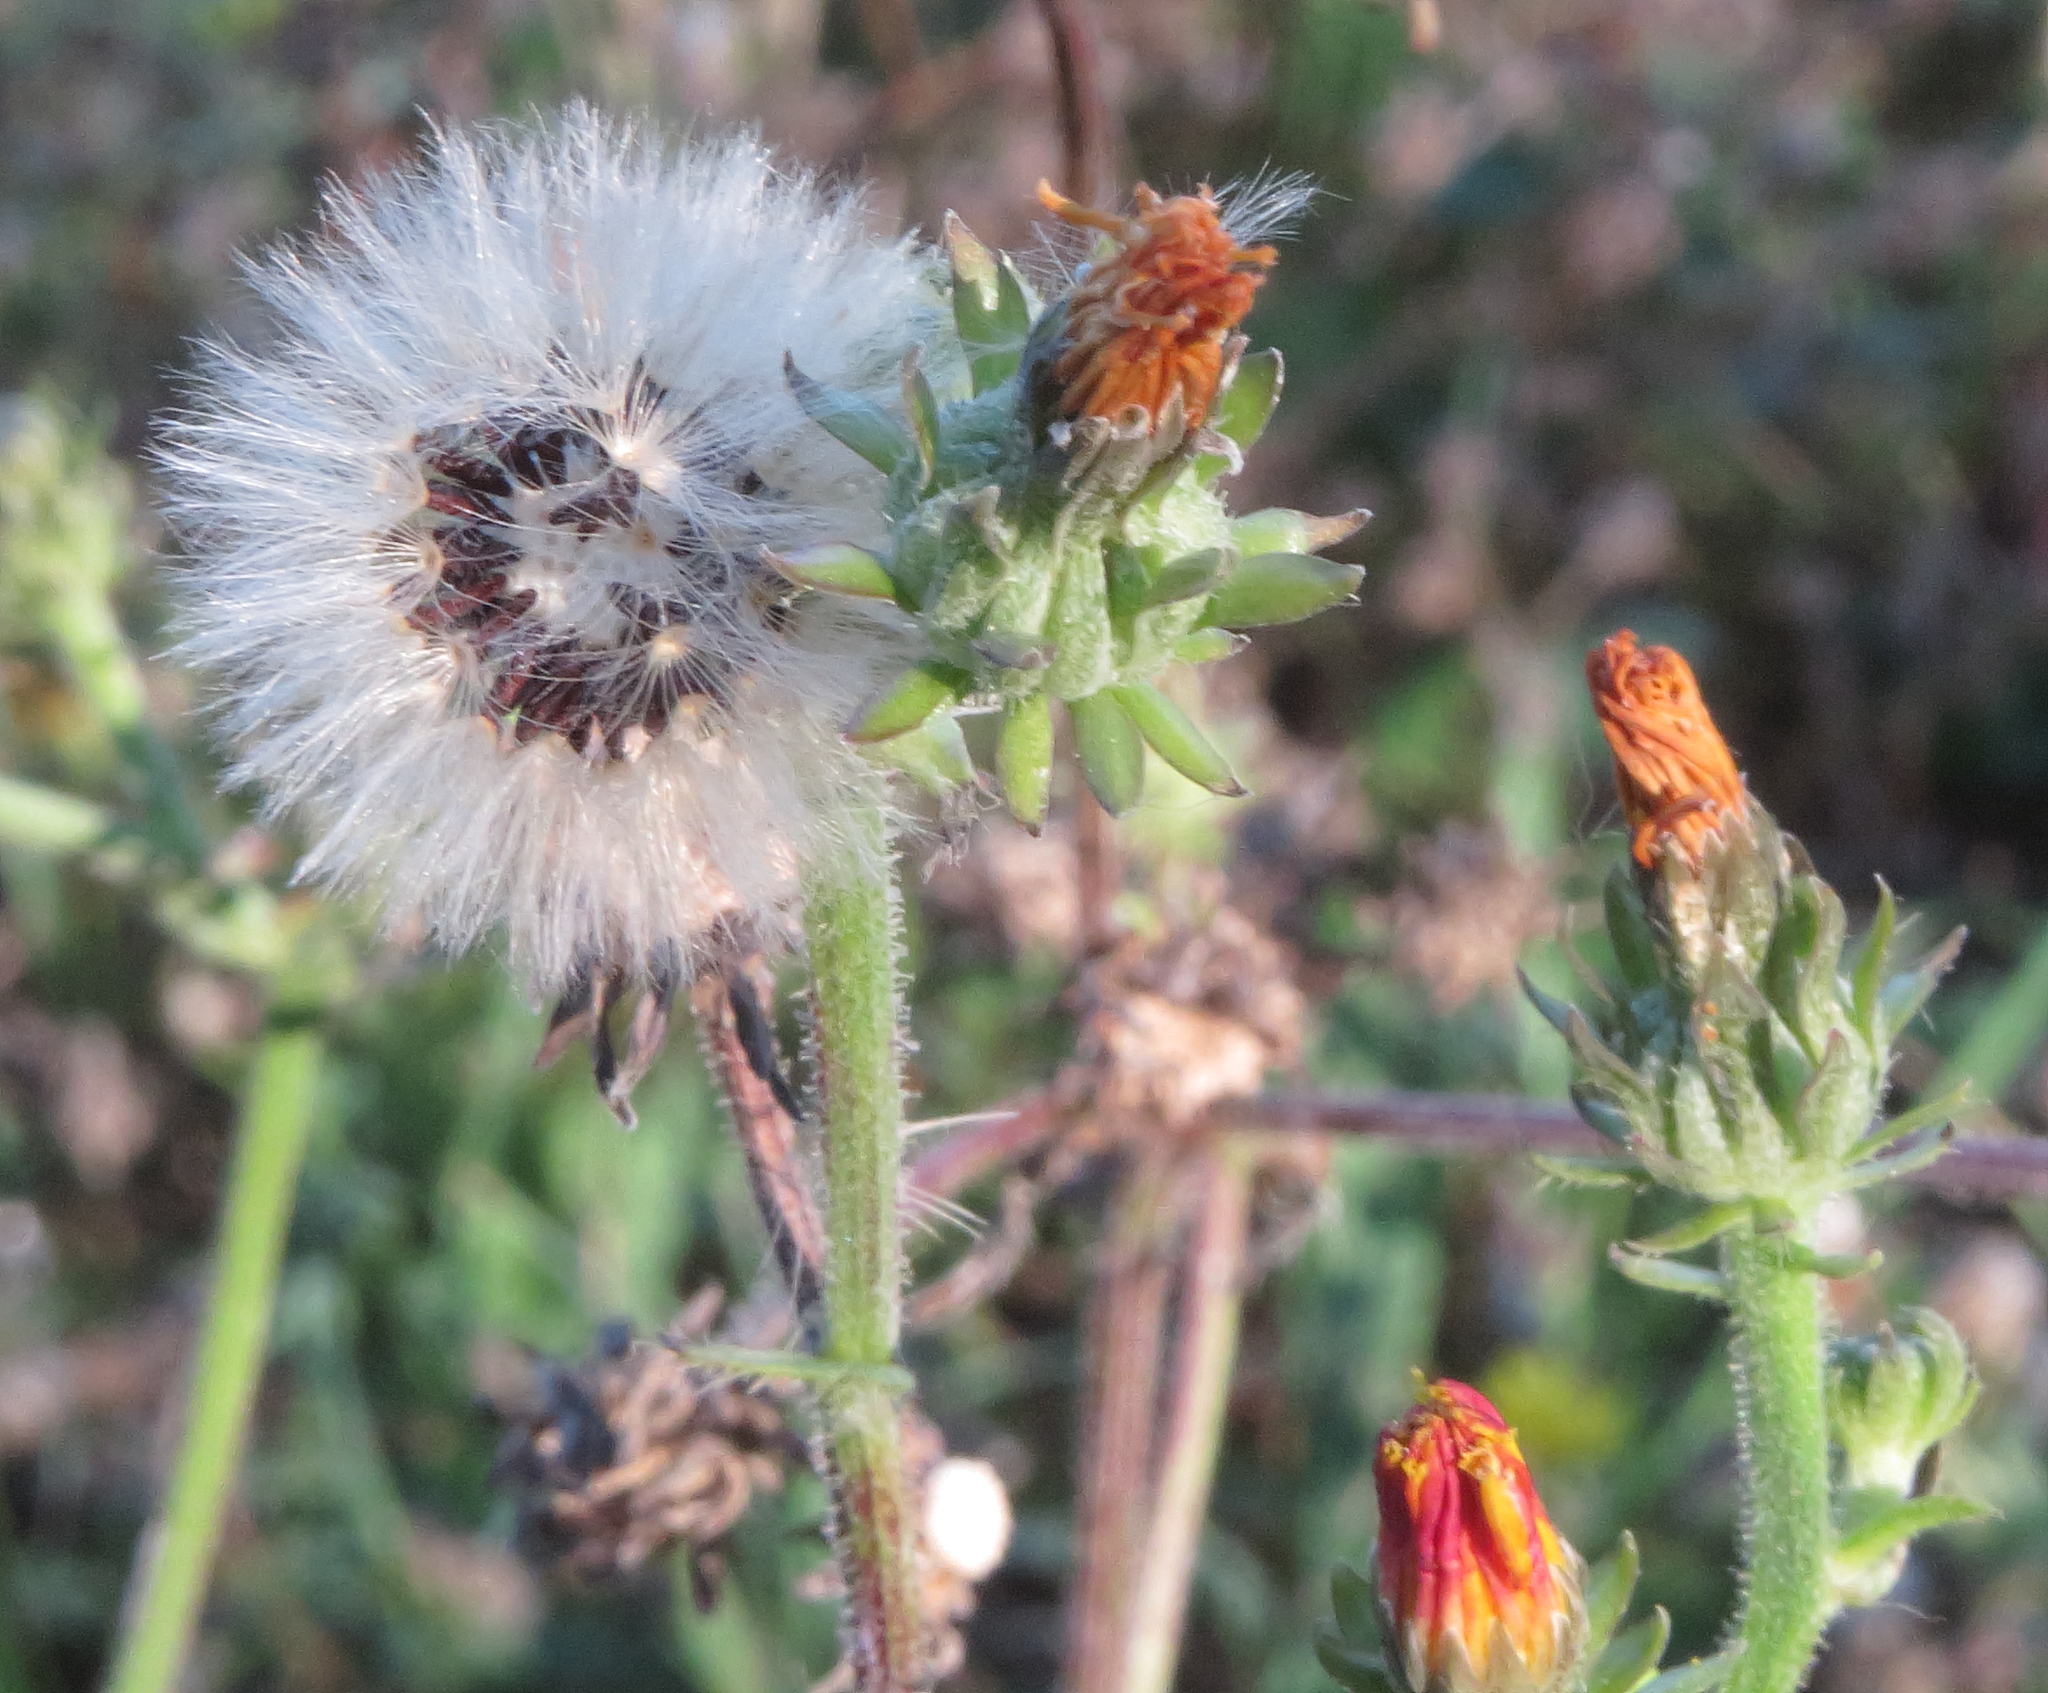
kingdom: Plantae
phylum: Tracheophyta
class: Magnoliopsida
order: Asterales
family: Asteraceae
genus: Picris
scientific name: Picris hieracioides
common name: Hawkweed oxtongue
